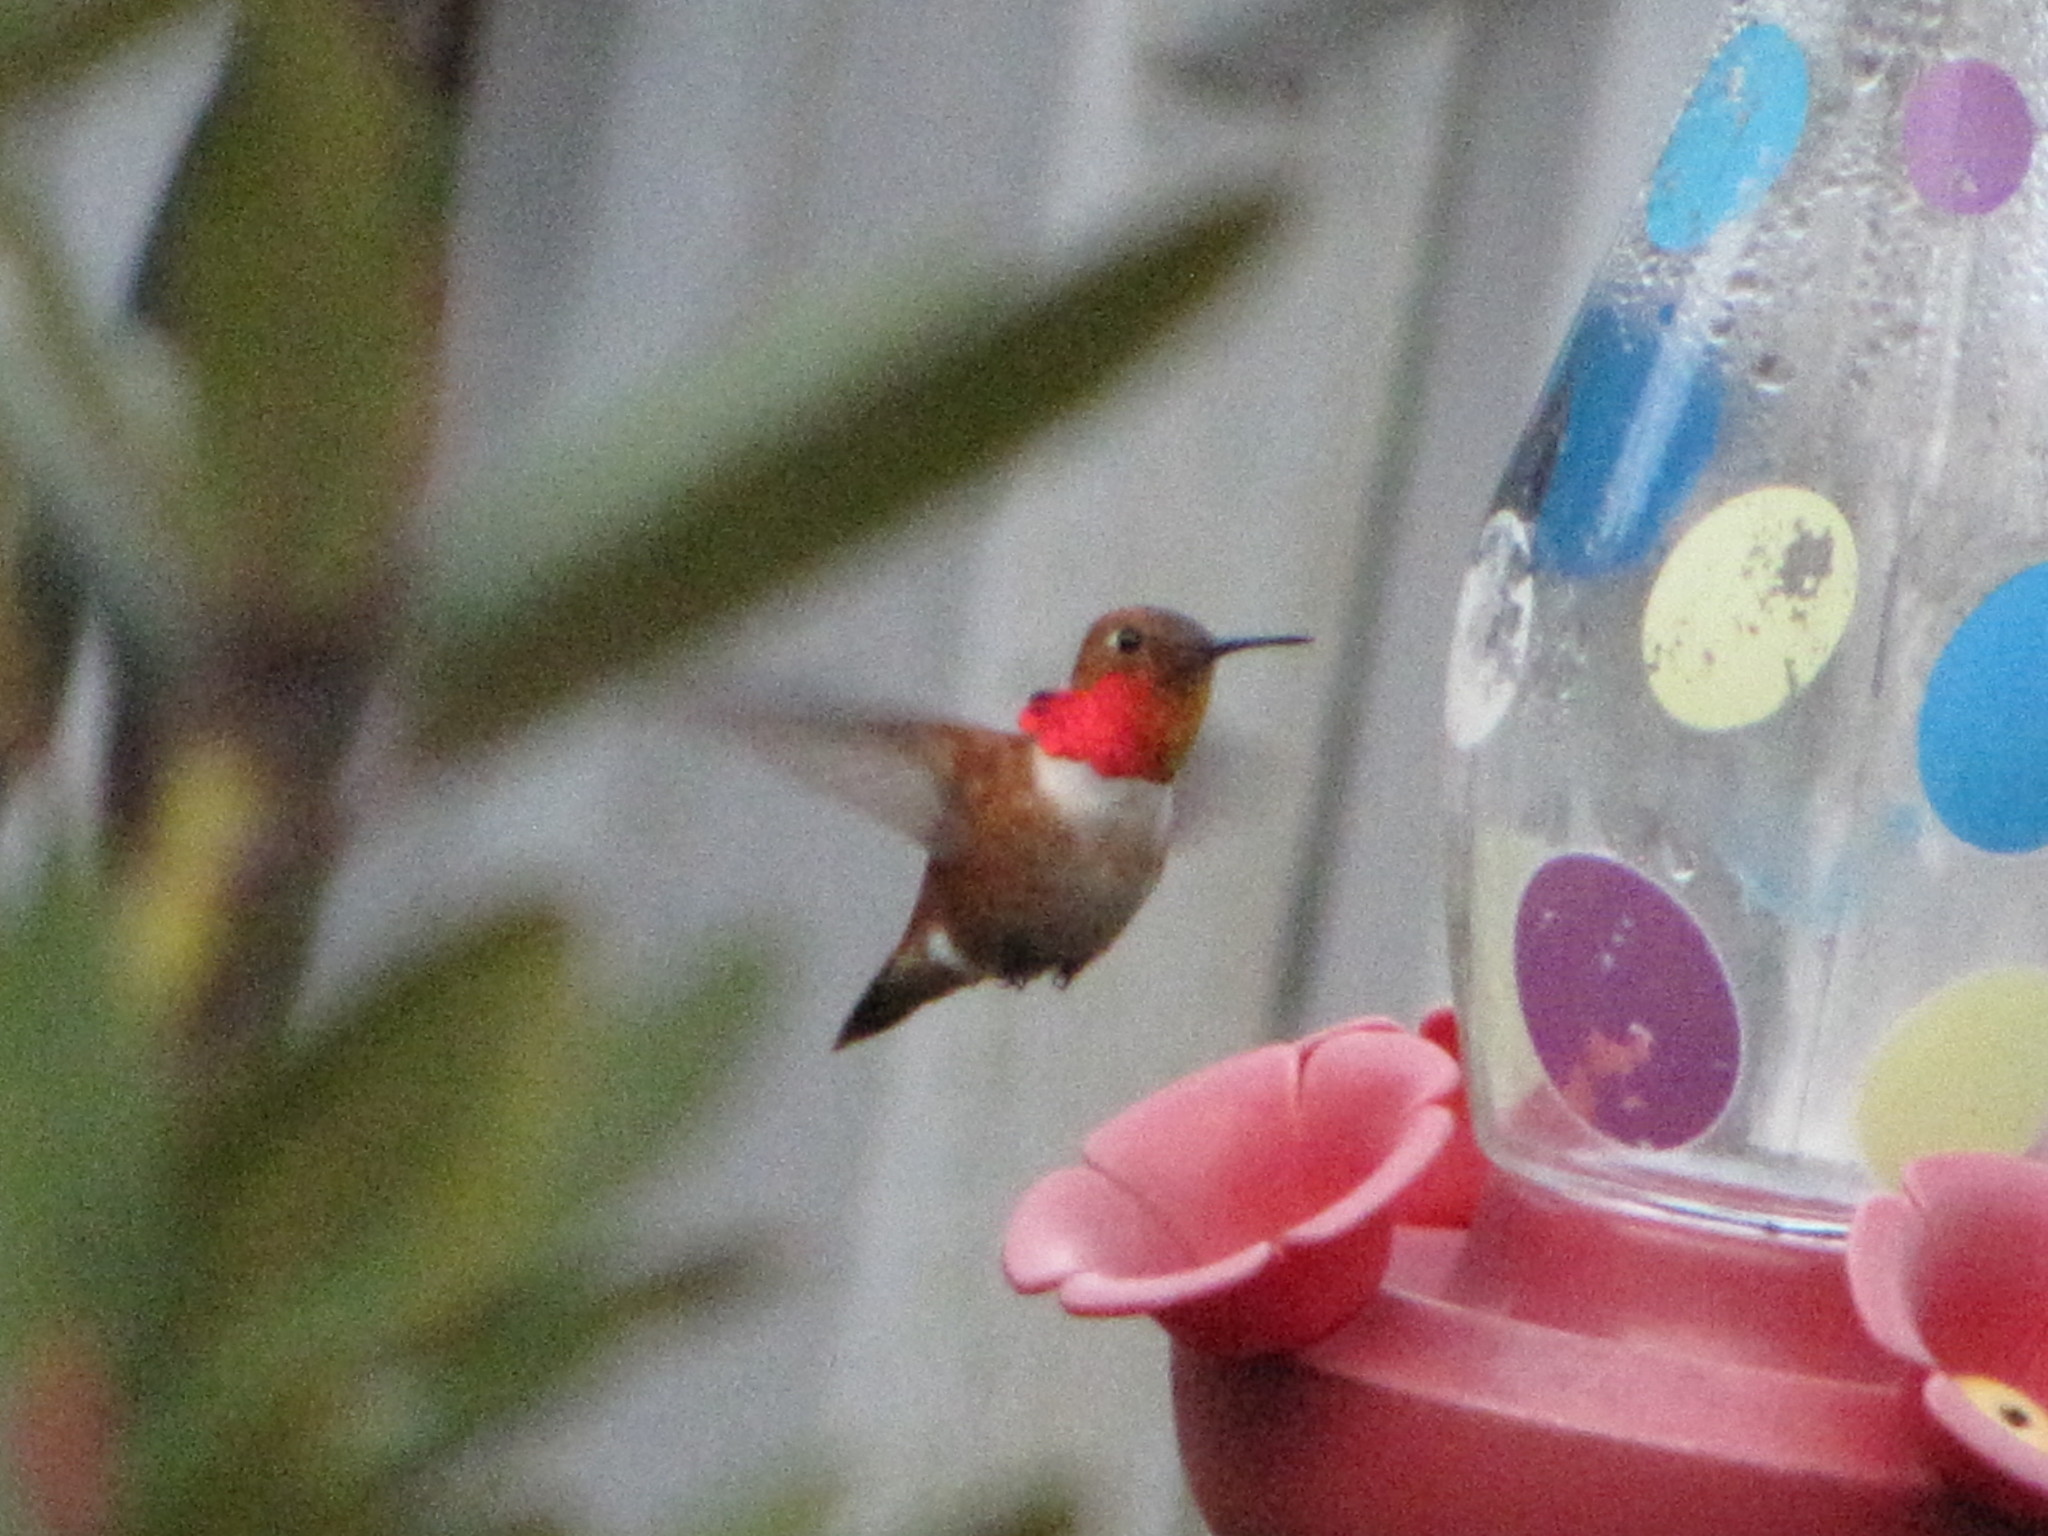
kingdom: Animalia
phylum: Chordata
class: Aves
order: Apodiformes
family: Trochilidae
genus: Selasphorus
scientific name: Selasphorus rufus
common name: Rufous hummingbird
